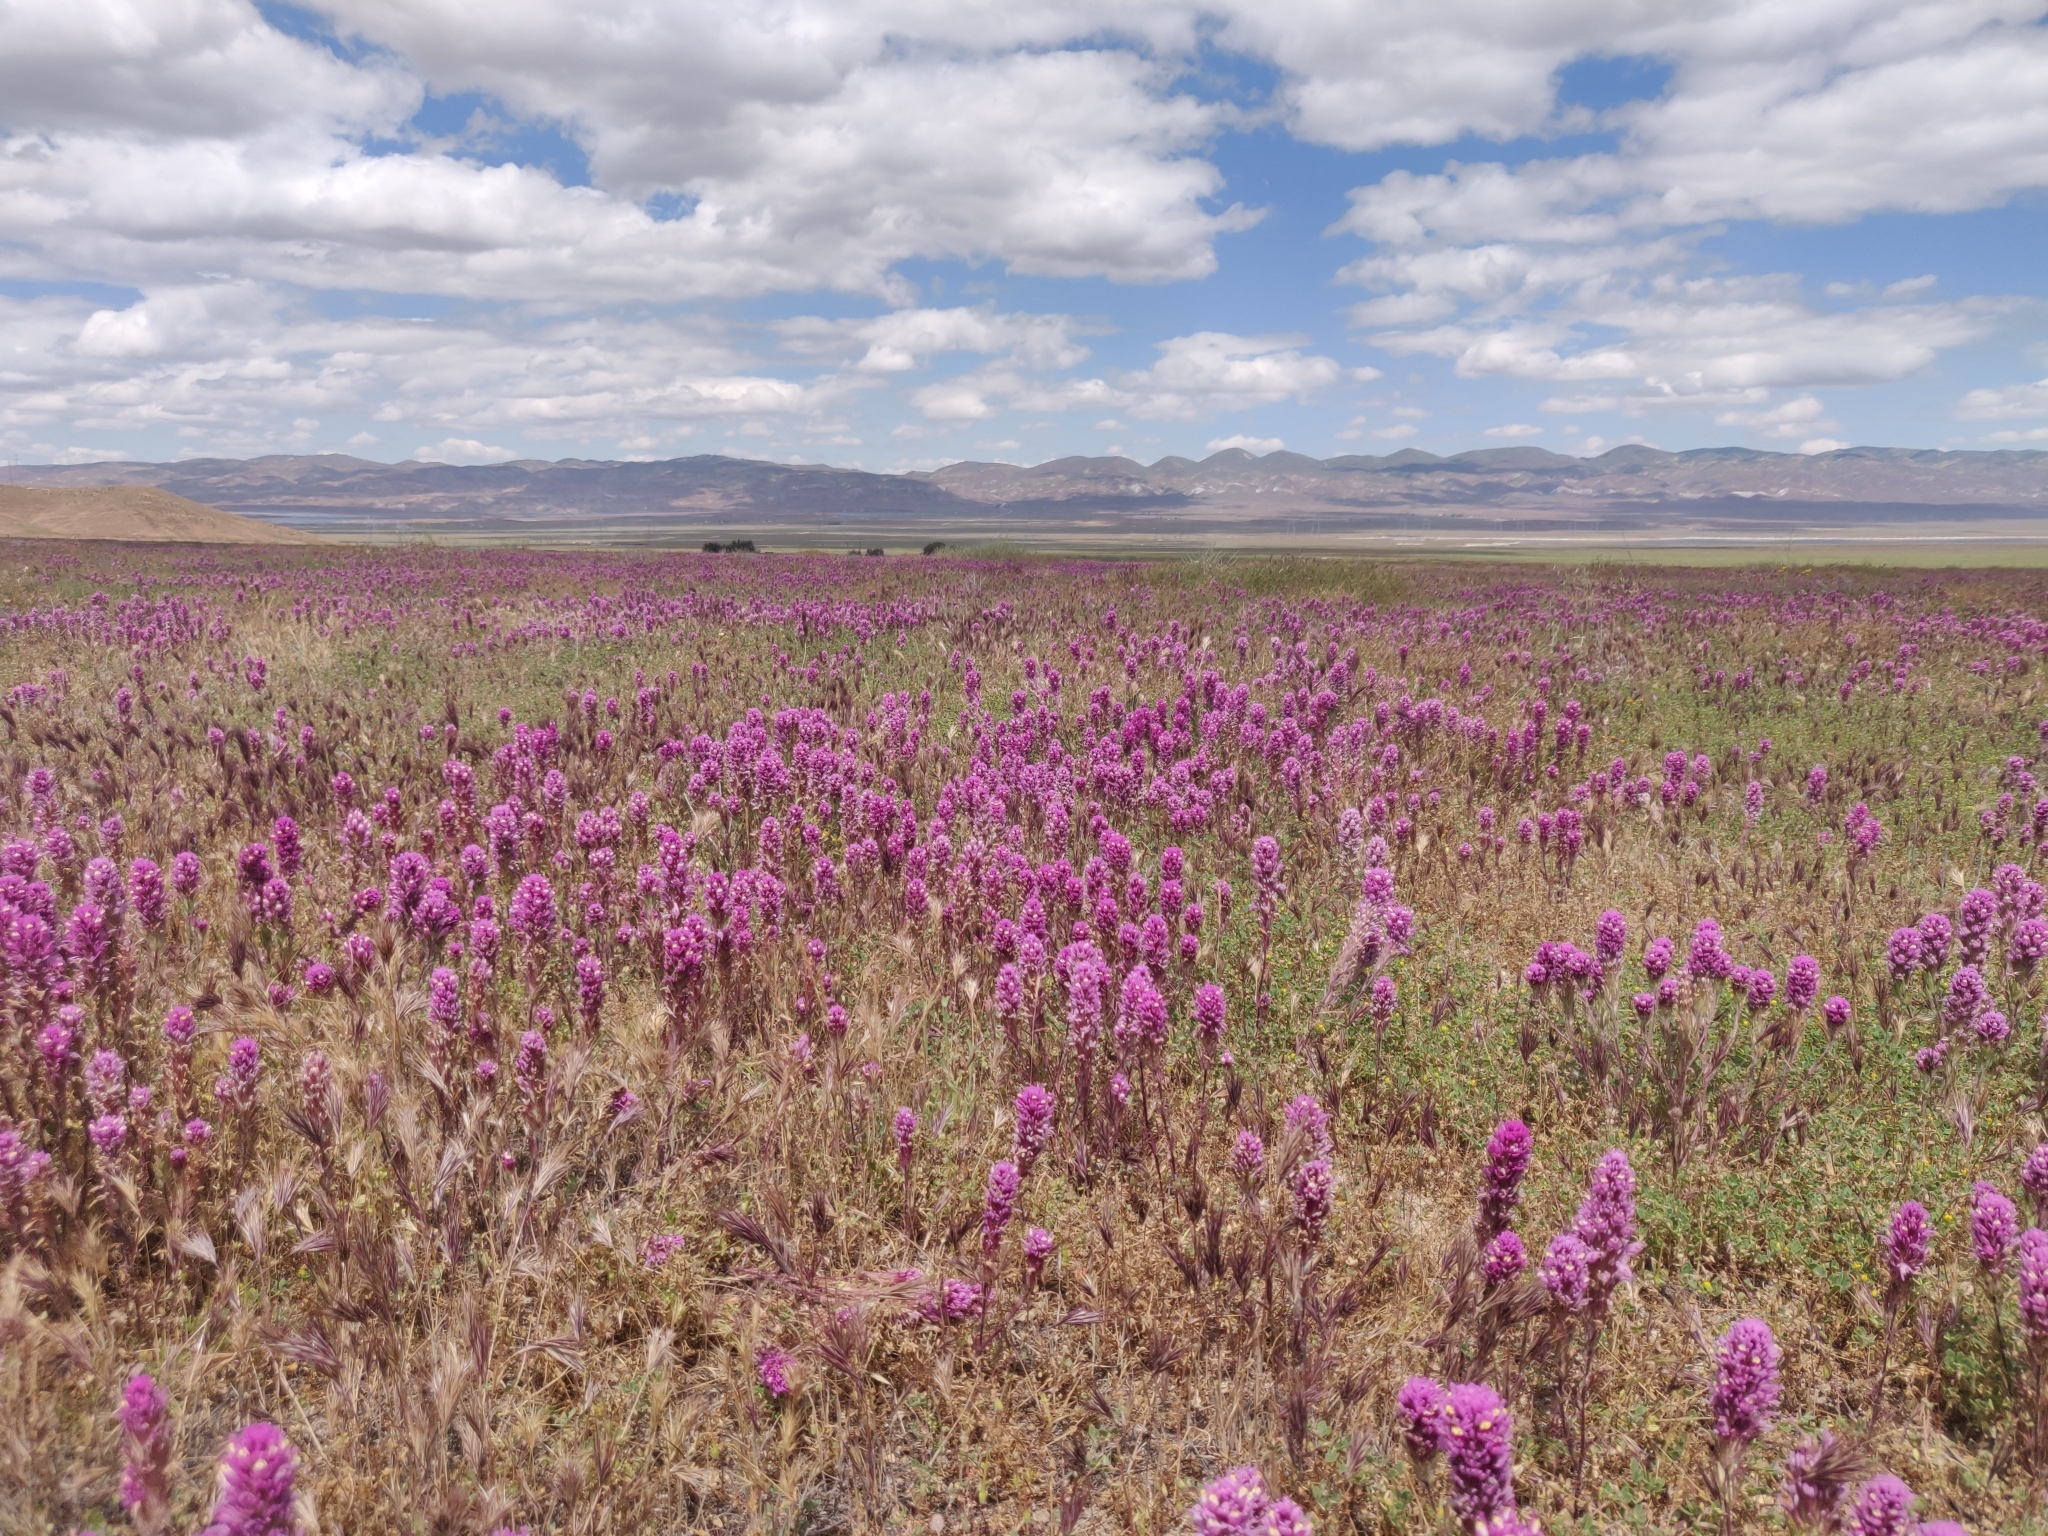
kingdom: Plantae
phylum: Tracheophyta
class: Magnoliopsida
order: Lamiales
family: Orobanchaceae
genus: Castilleja
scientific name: Castilleja exserta
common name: Purple owl-clover
